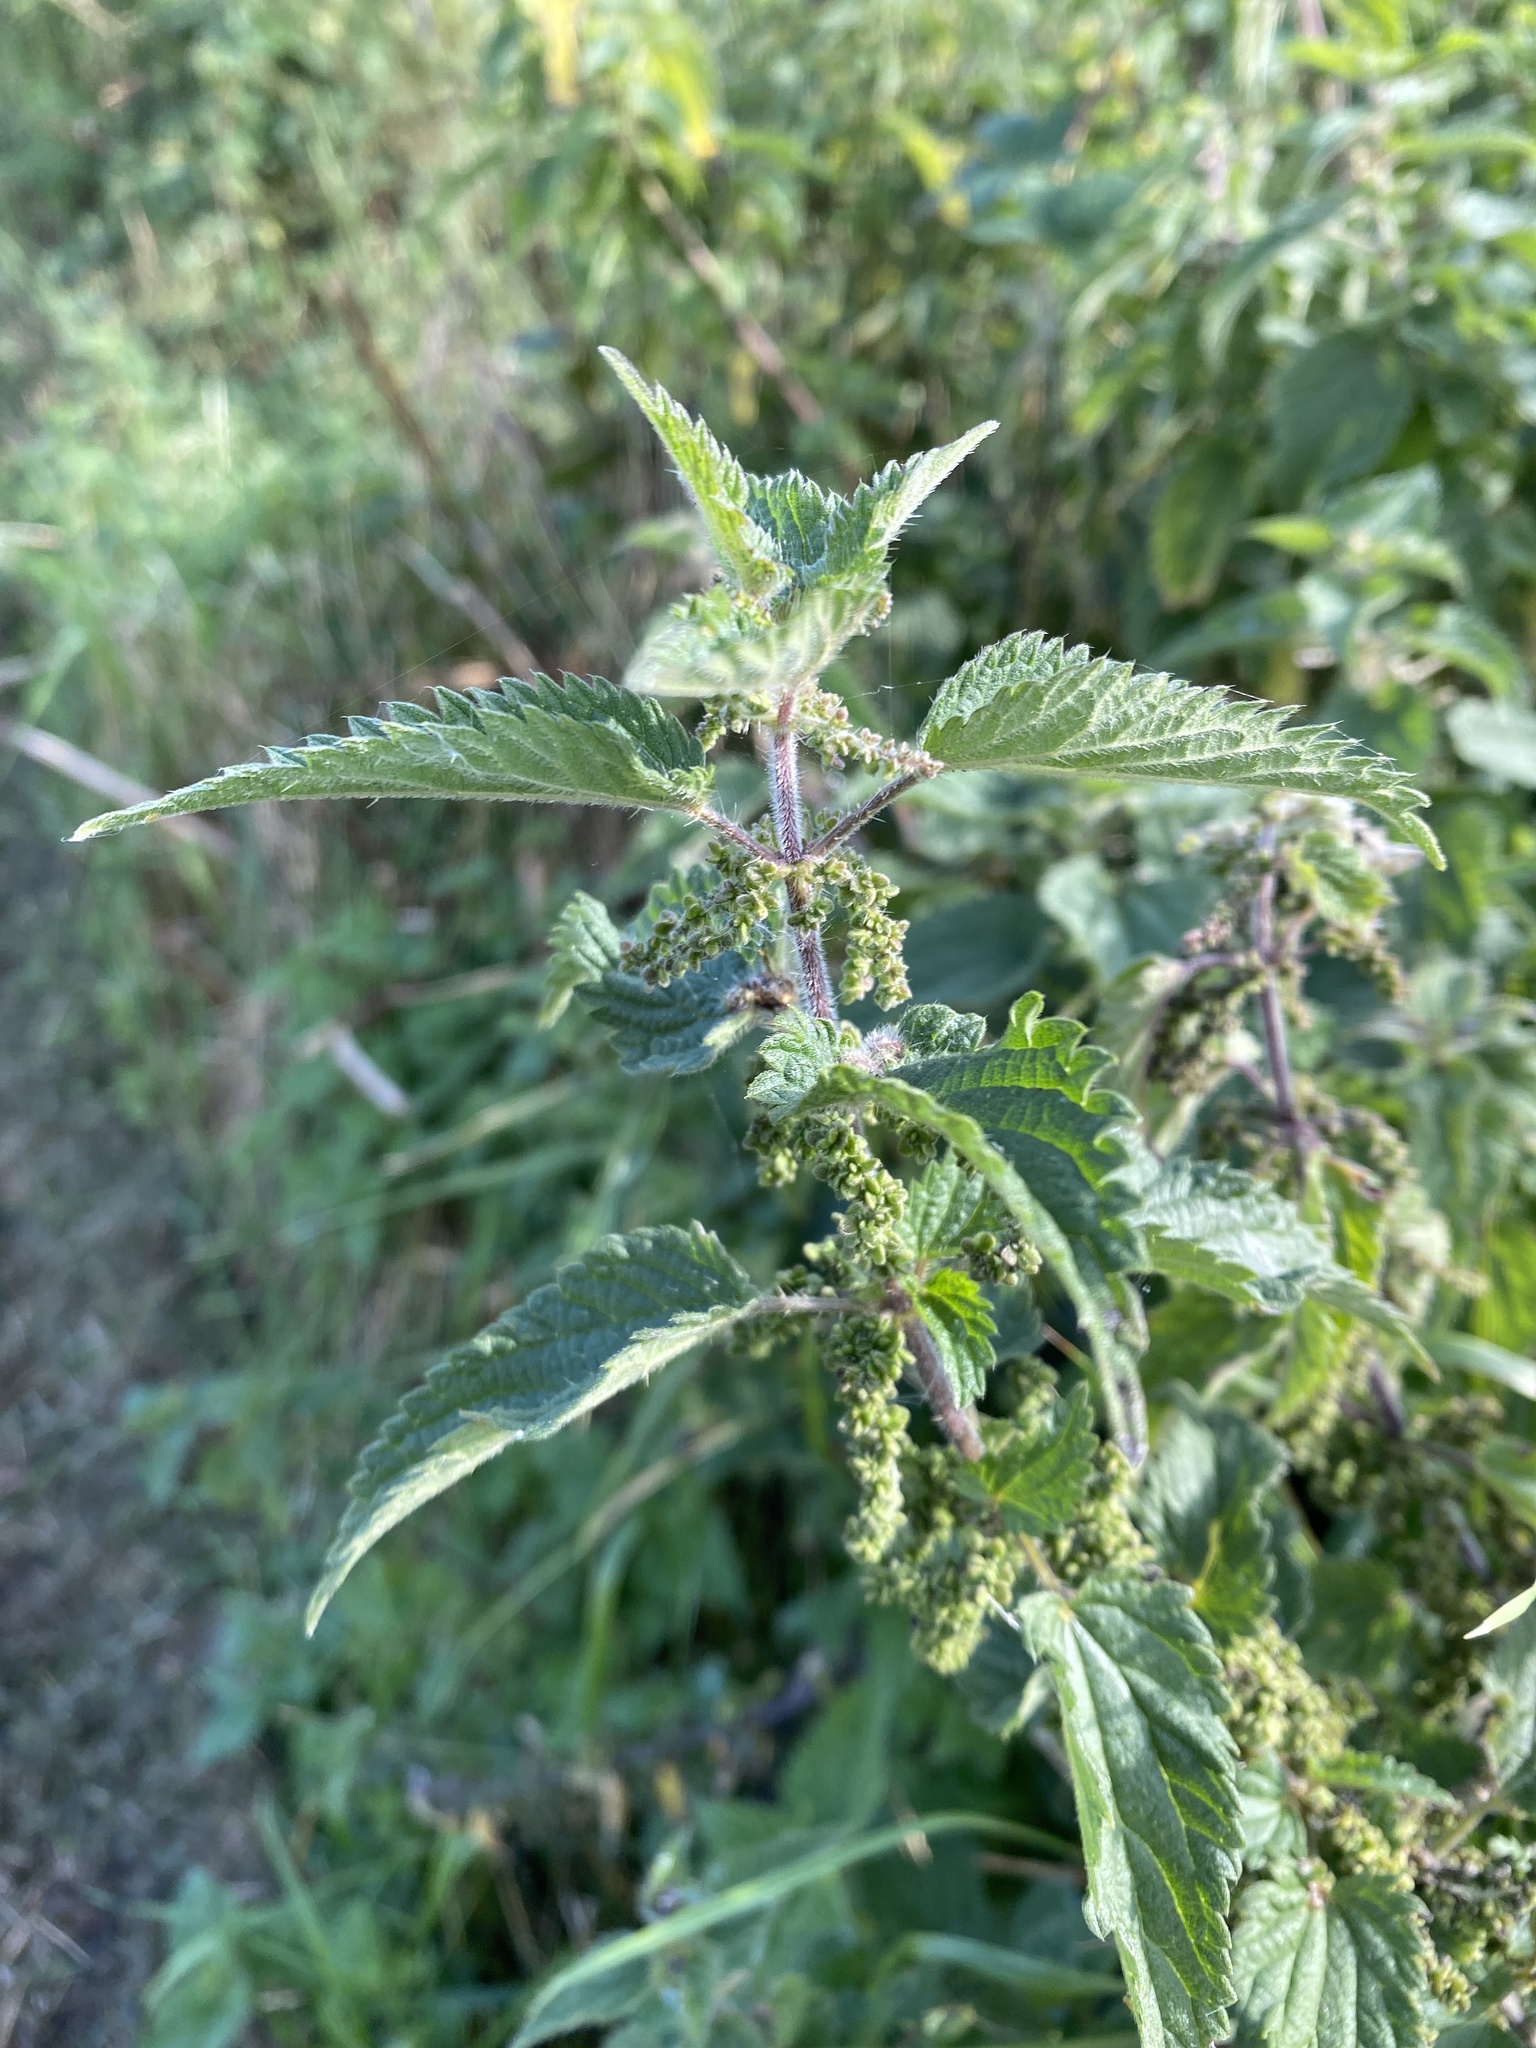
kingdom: Plantae
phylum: Tracheophyta
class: Magnoliopsida
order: Rosales
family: Urticaceae
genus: Urtica
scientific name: Urtica dioica
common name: Common nettle
